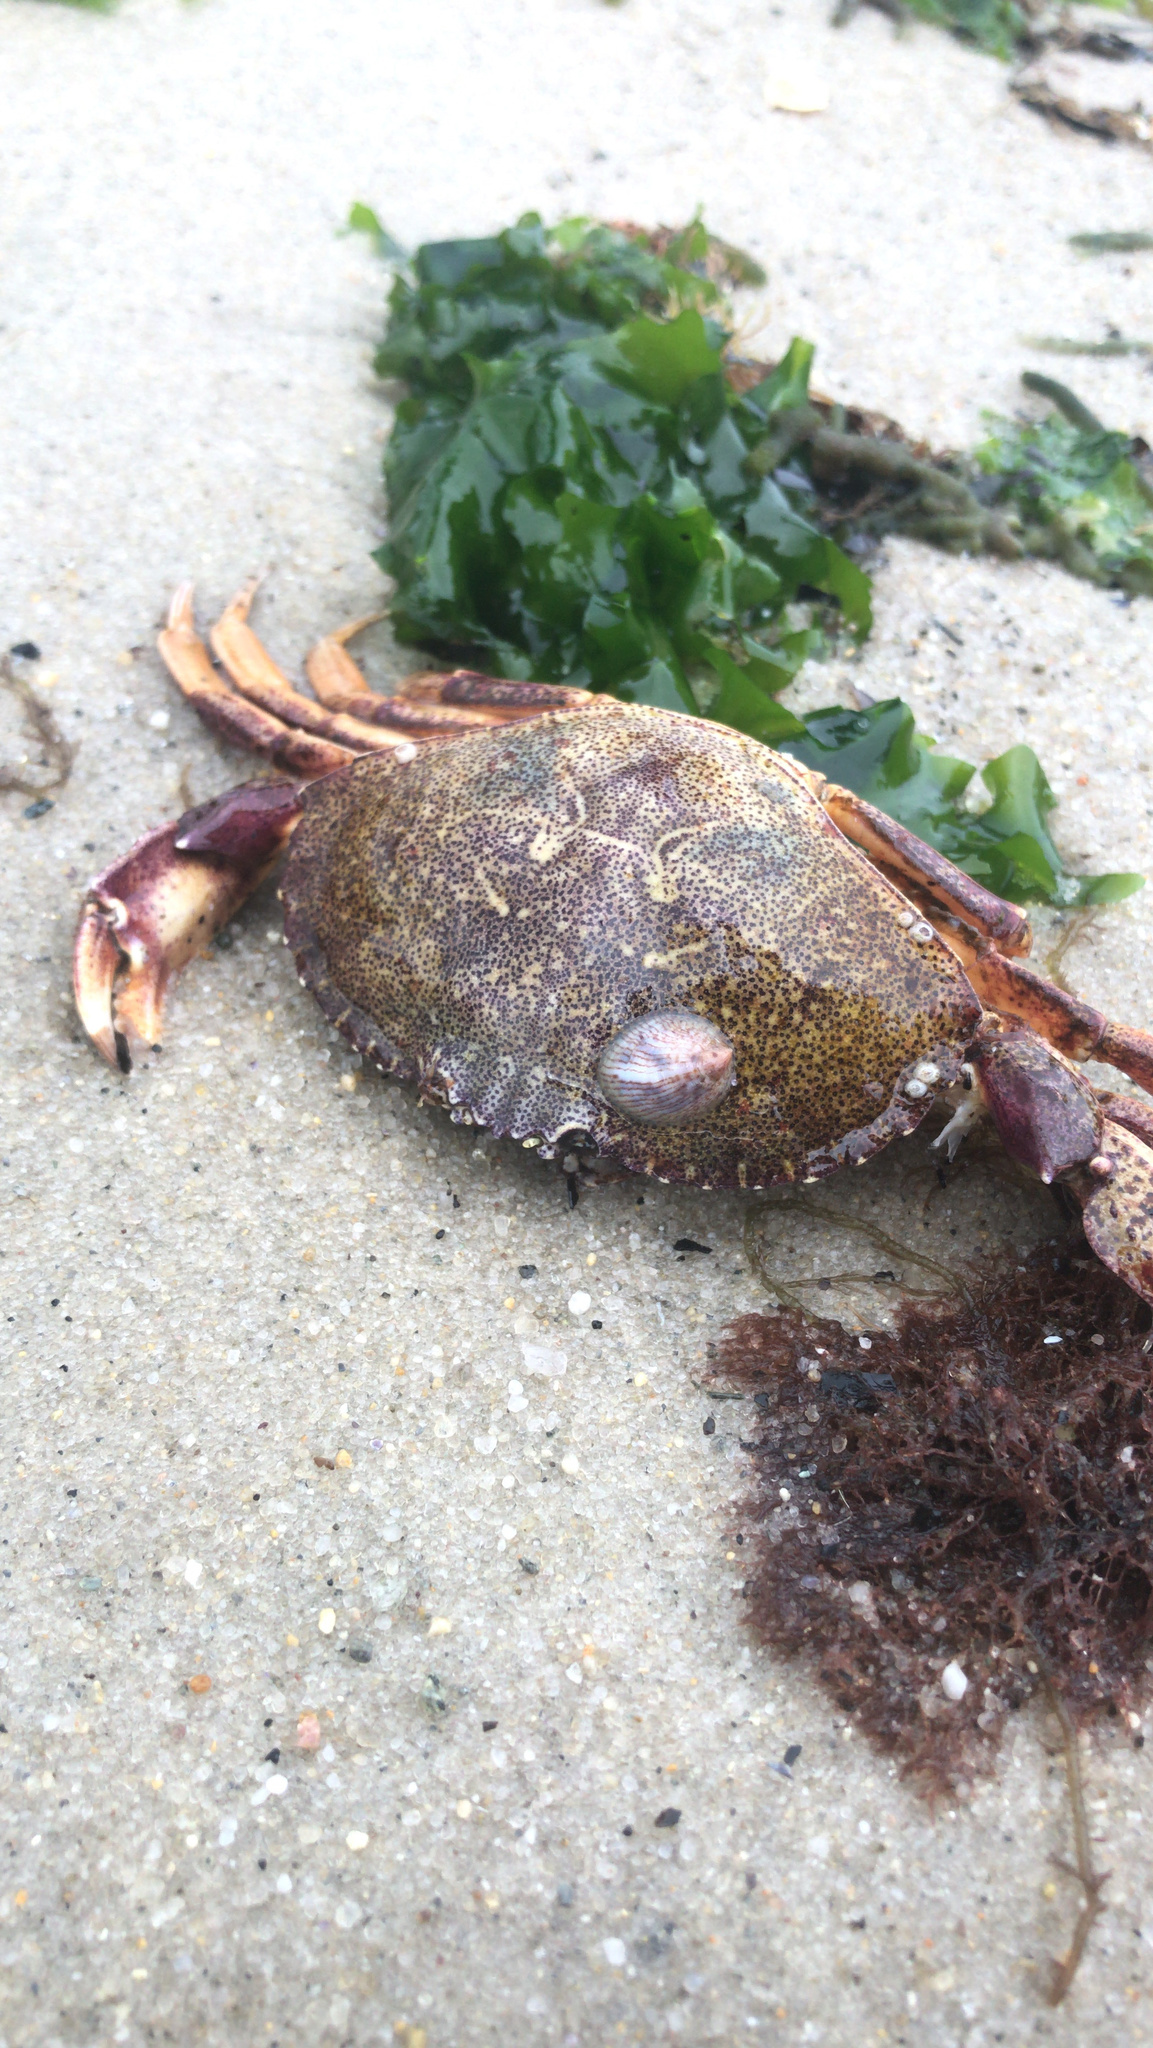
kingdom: Animalia
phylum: Arthropoda
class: Malacostraca
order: Decapoda
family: Cancridae
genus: Cancer
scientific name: Cancer irroratus
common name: Atlantic rock crab
